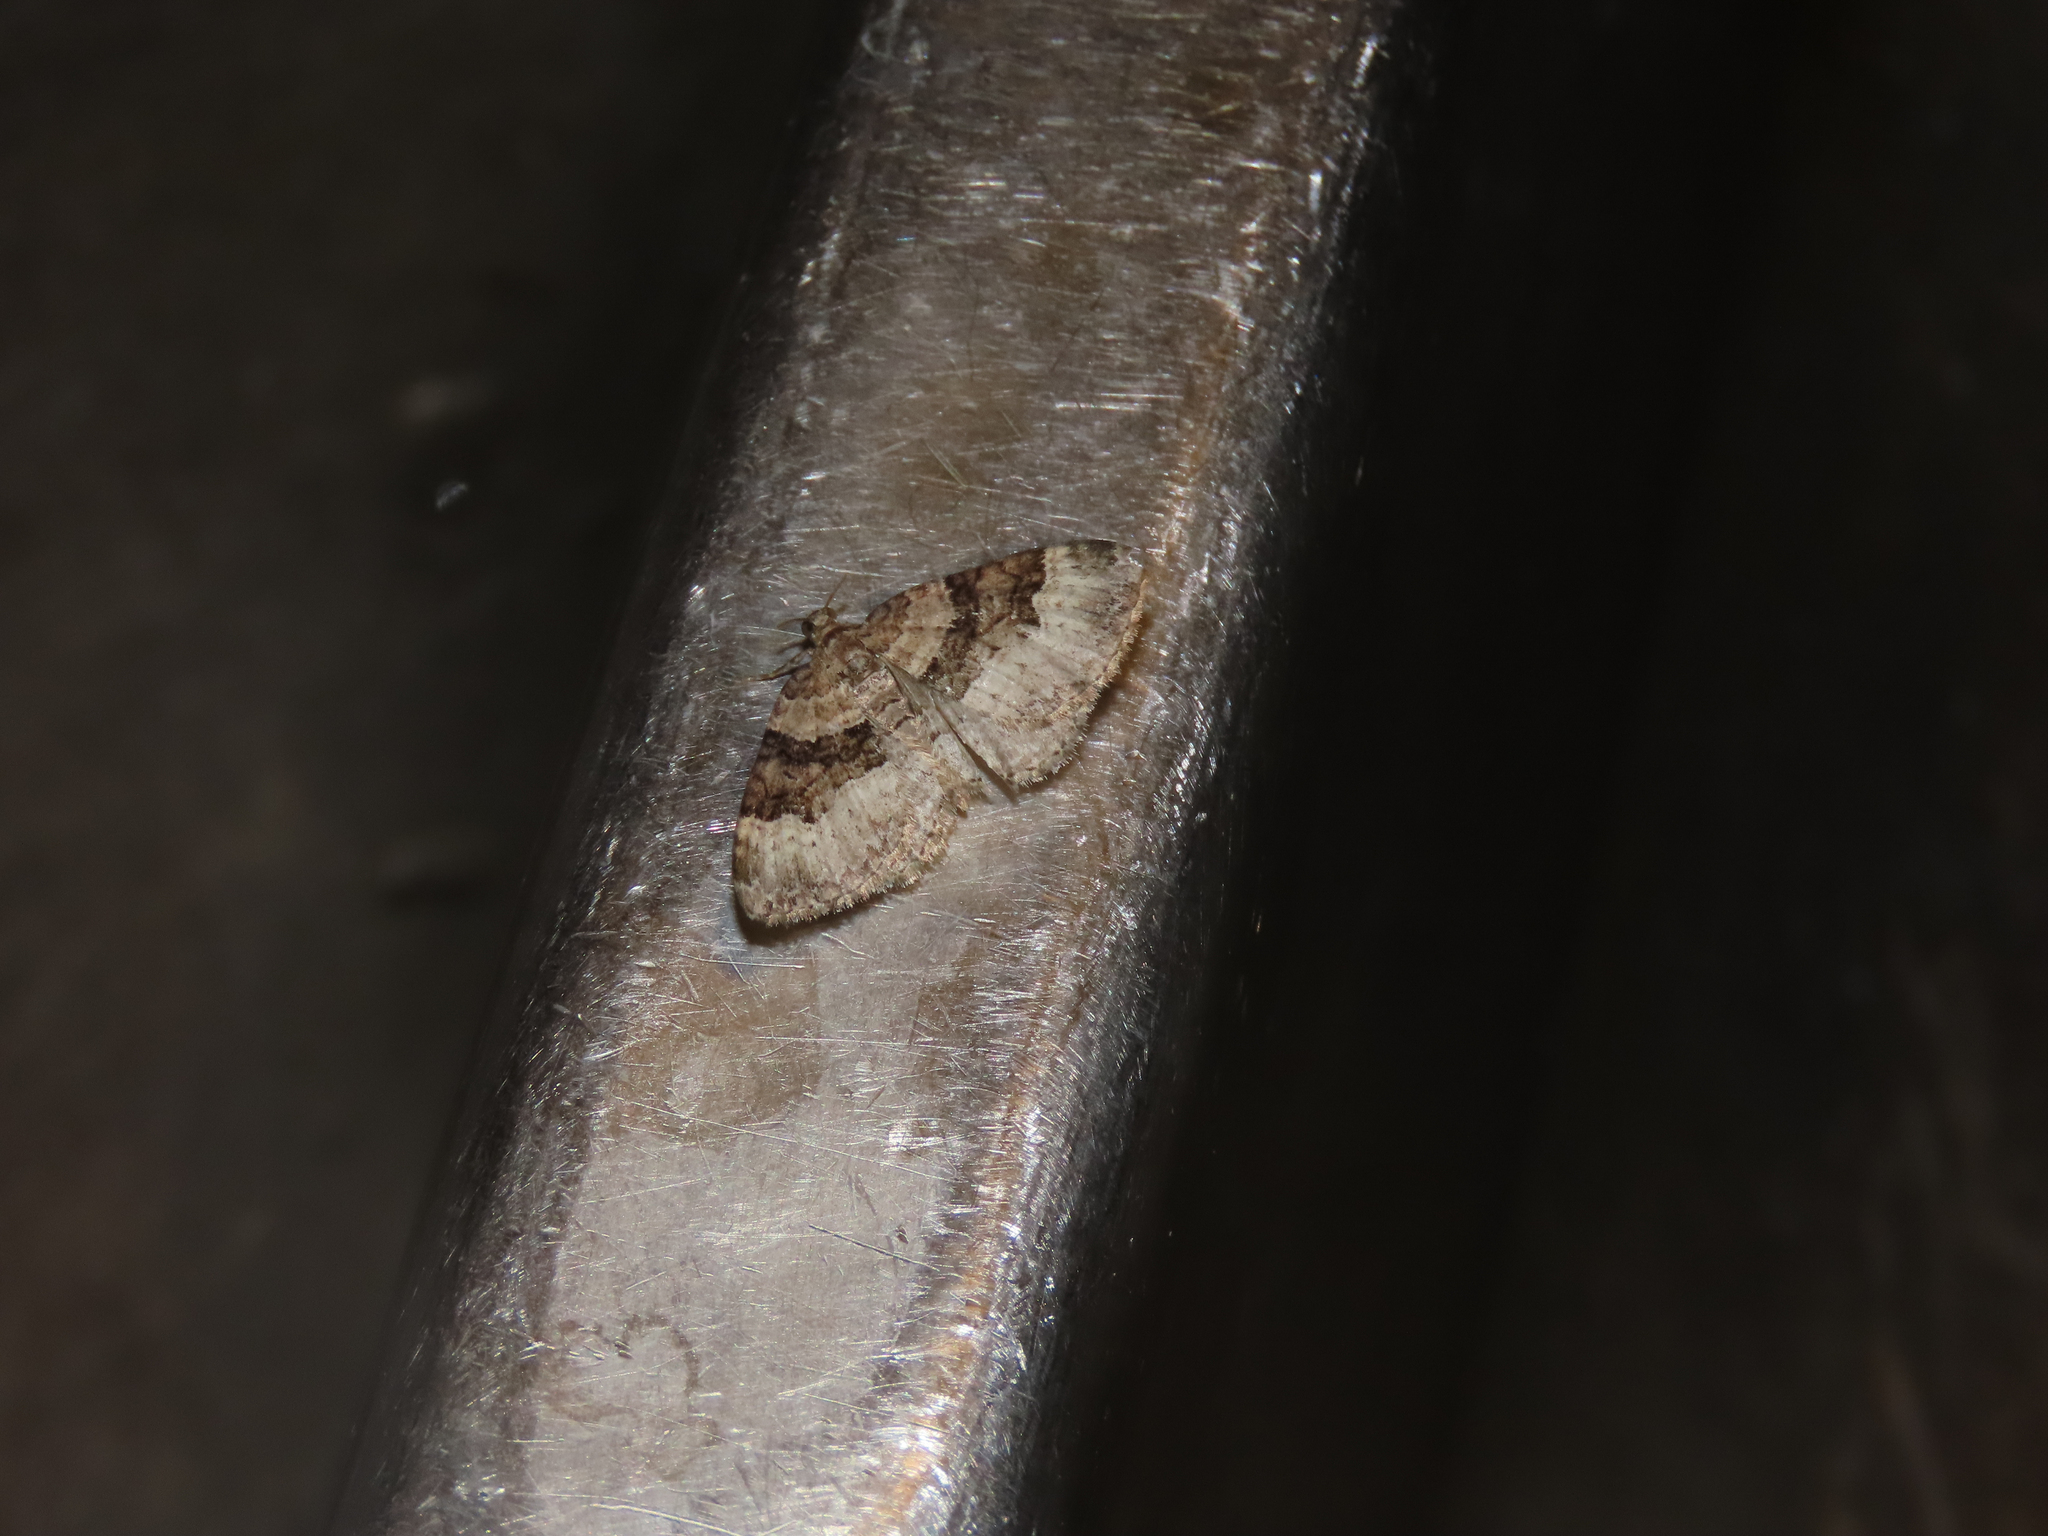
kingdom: Animalia
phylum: Arthropoda
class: Insecta
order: Lepidoptera
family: Geometridae
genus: Xanthorhoe
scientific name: Xanthorhoe lacustrata
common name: Toothed brown carpet
